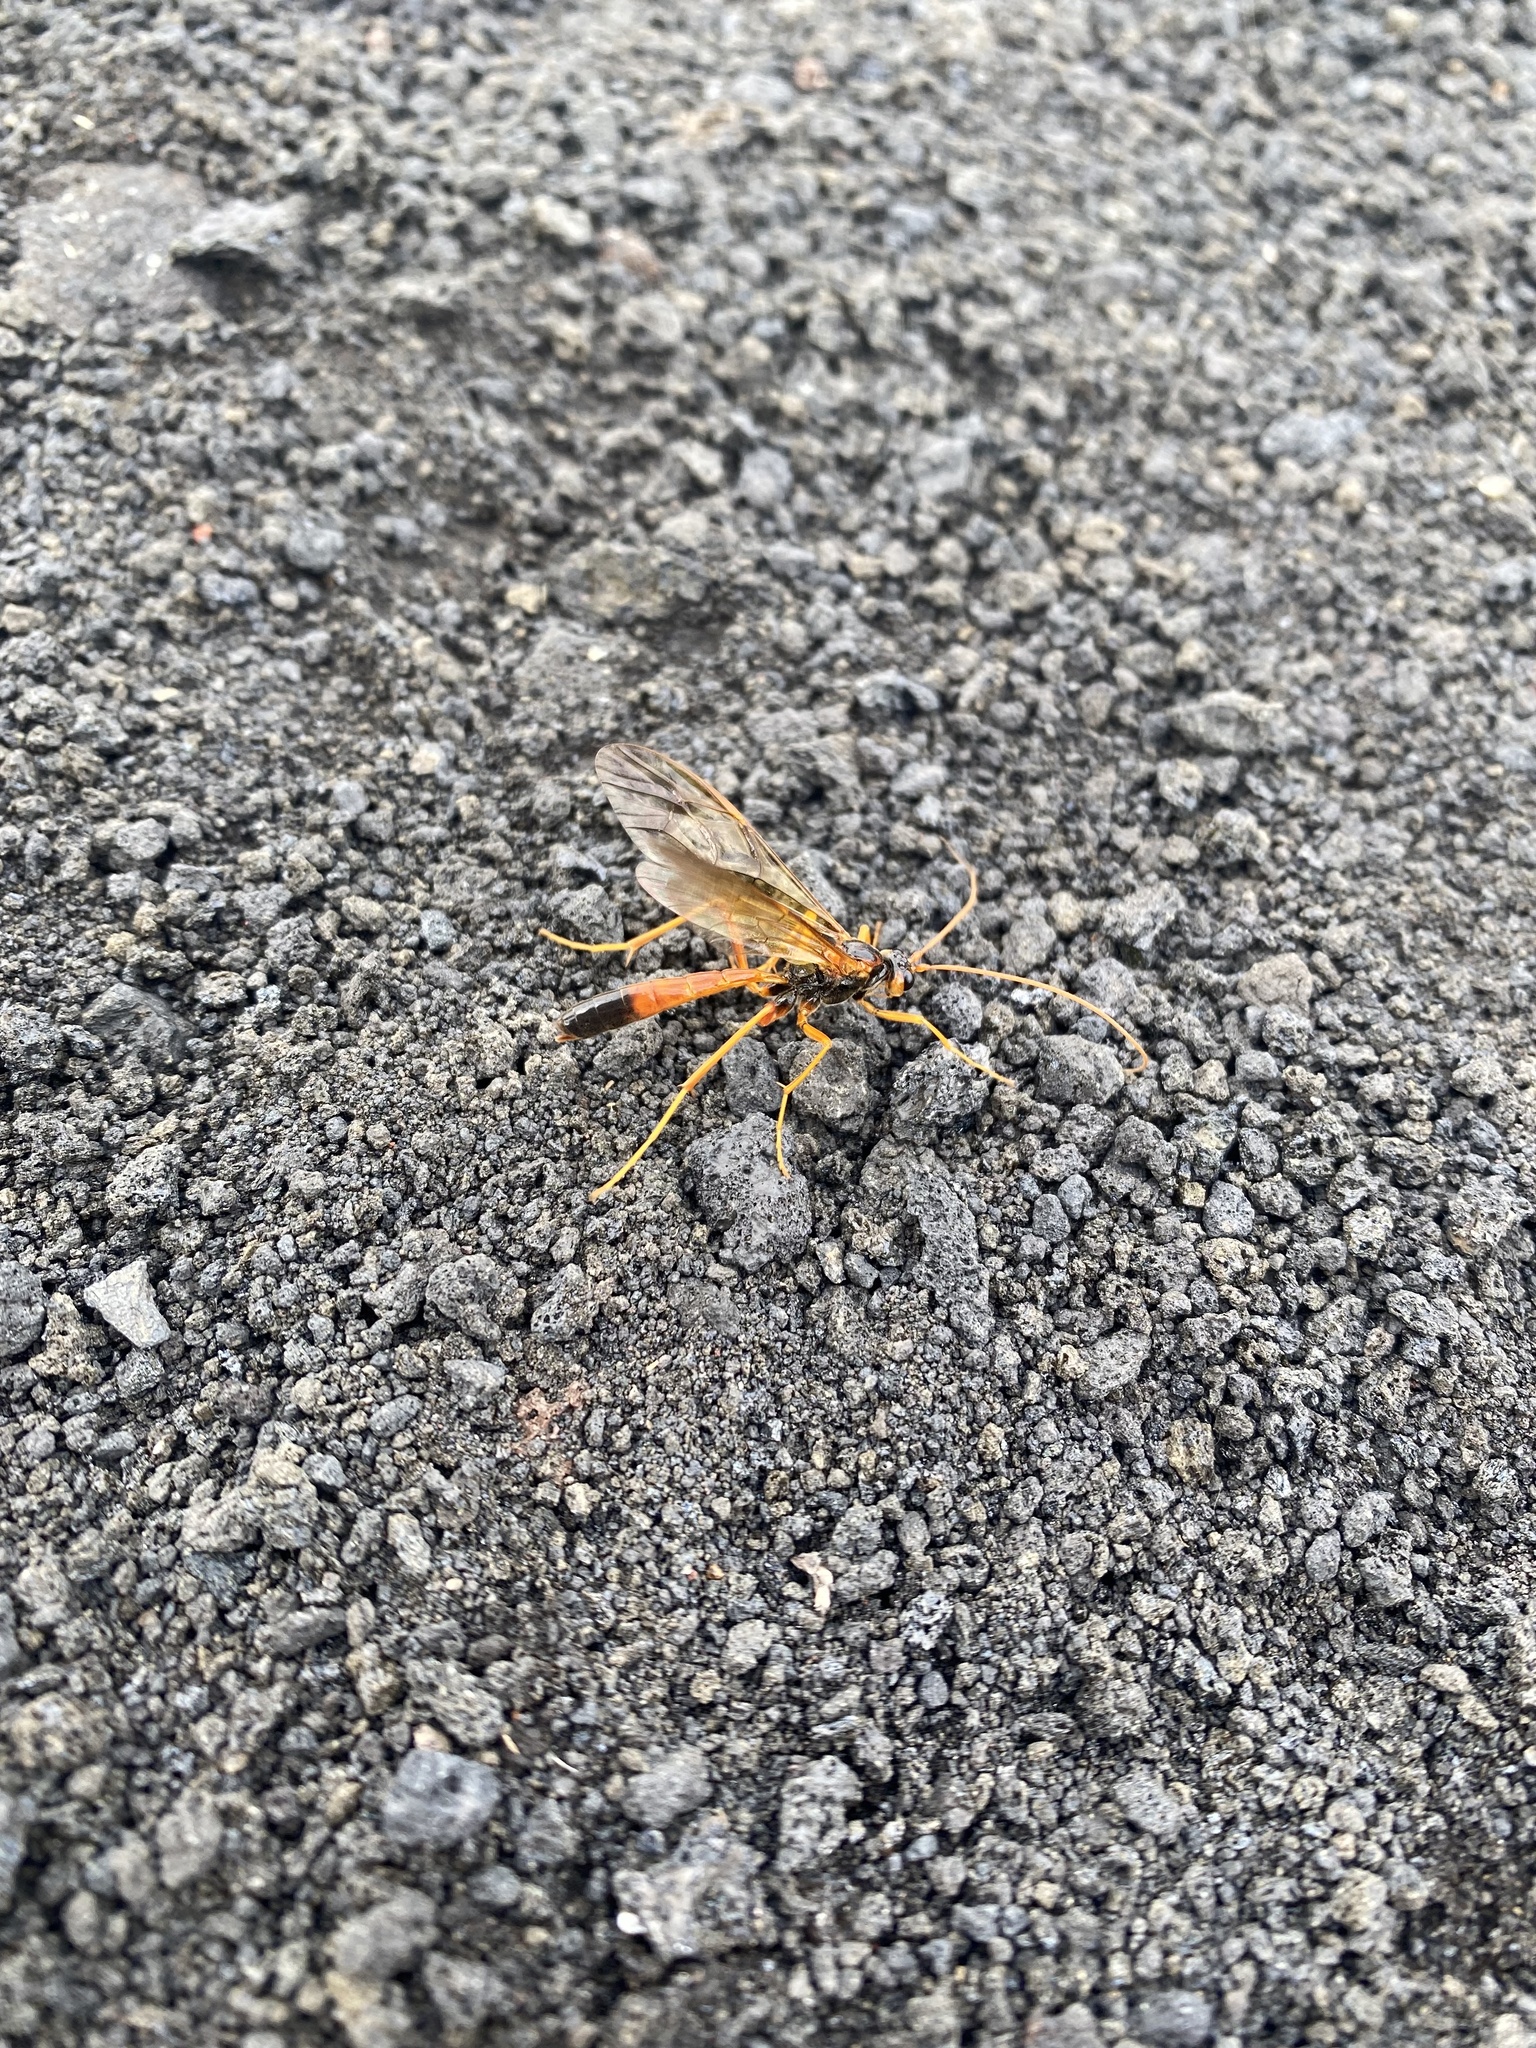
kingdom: Animalia
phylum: Arthropoda
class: Insecta
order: Hymenoptera
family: Ichneumonidae
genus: Opheltes
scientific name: Opheltes glaucopterus
